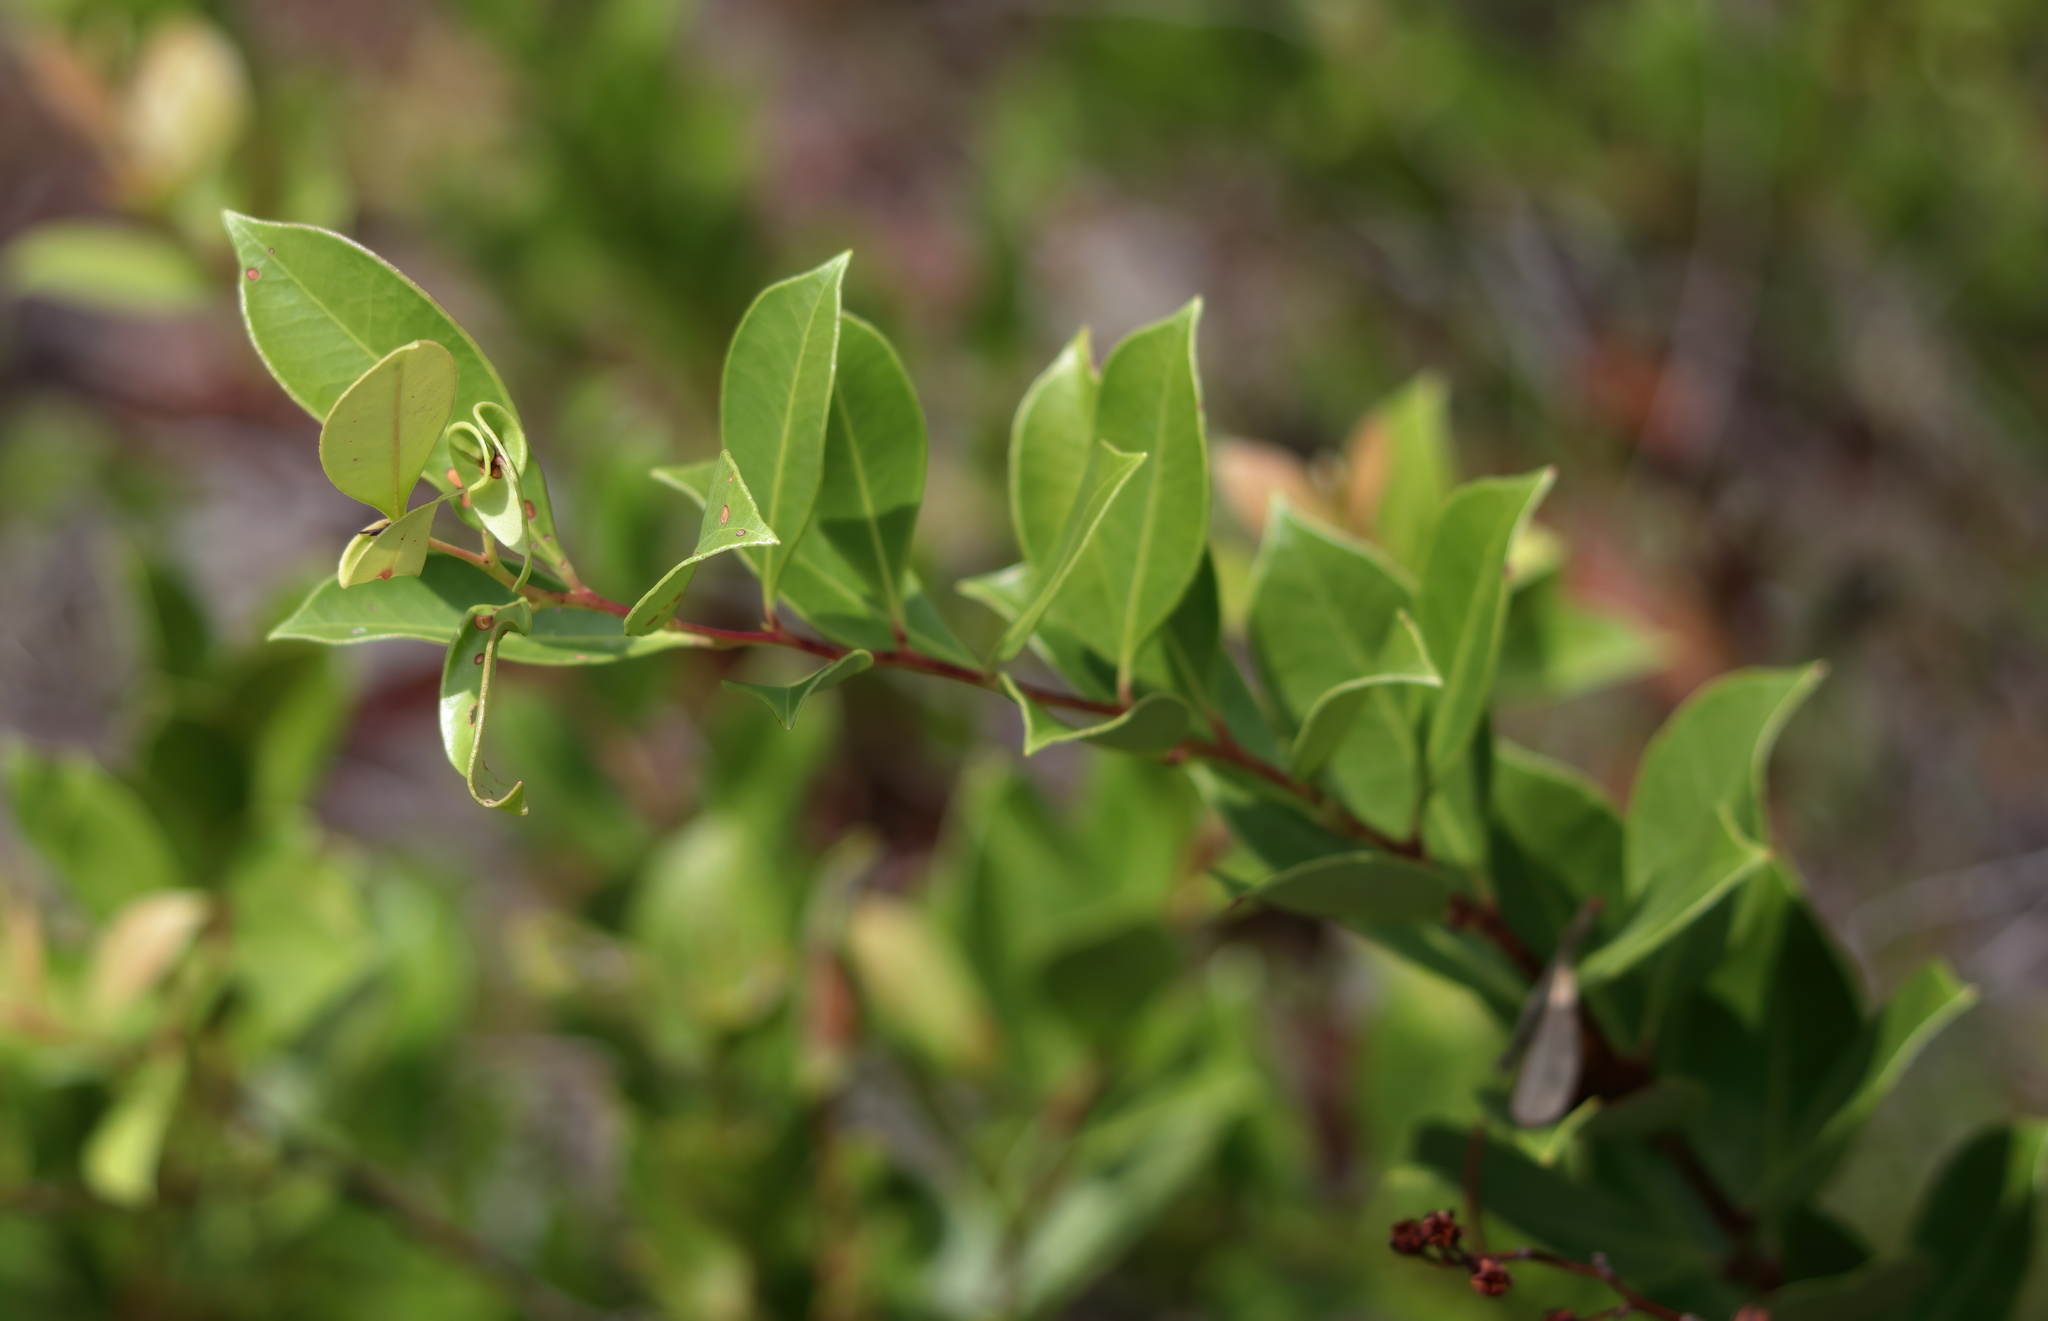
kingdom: Plantae
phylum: Tracheophyta
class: Magnoliopsida
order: Ericales
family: Ericaceae
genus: Lyonia
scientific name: Lyonia lucida
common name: Fetterbush
